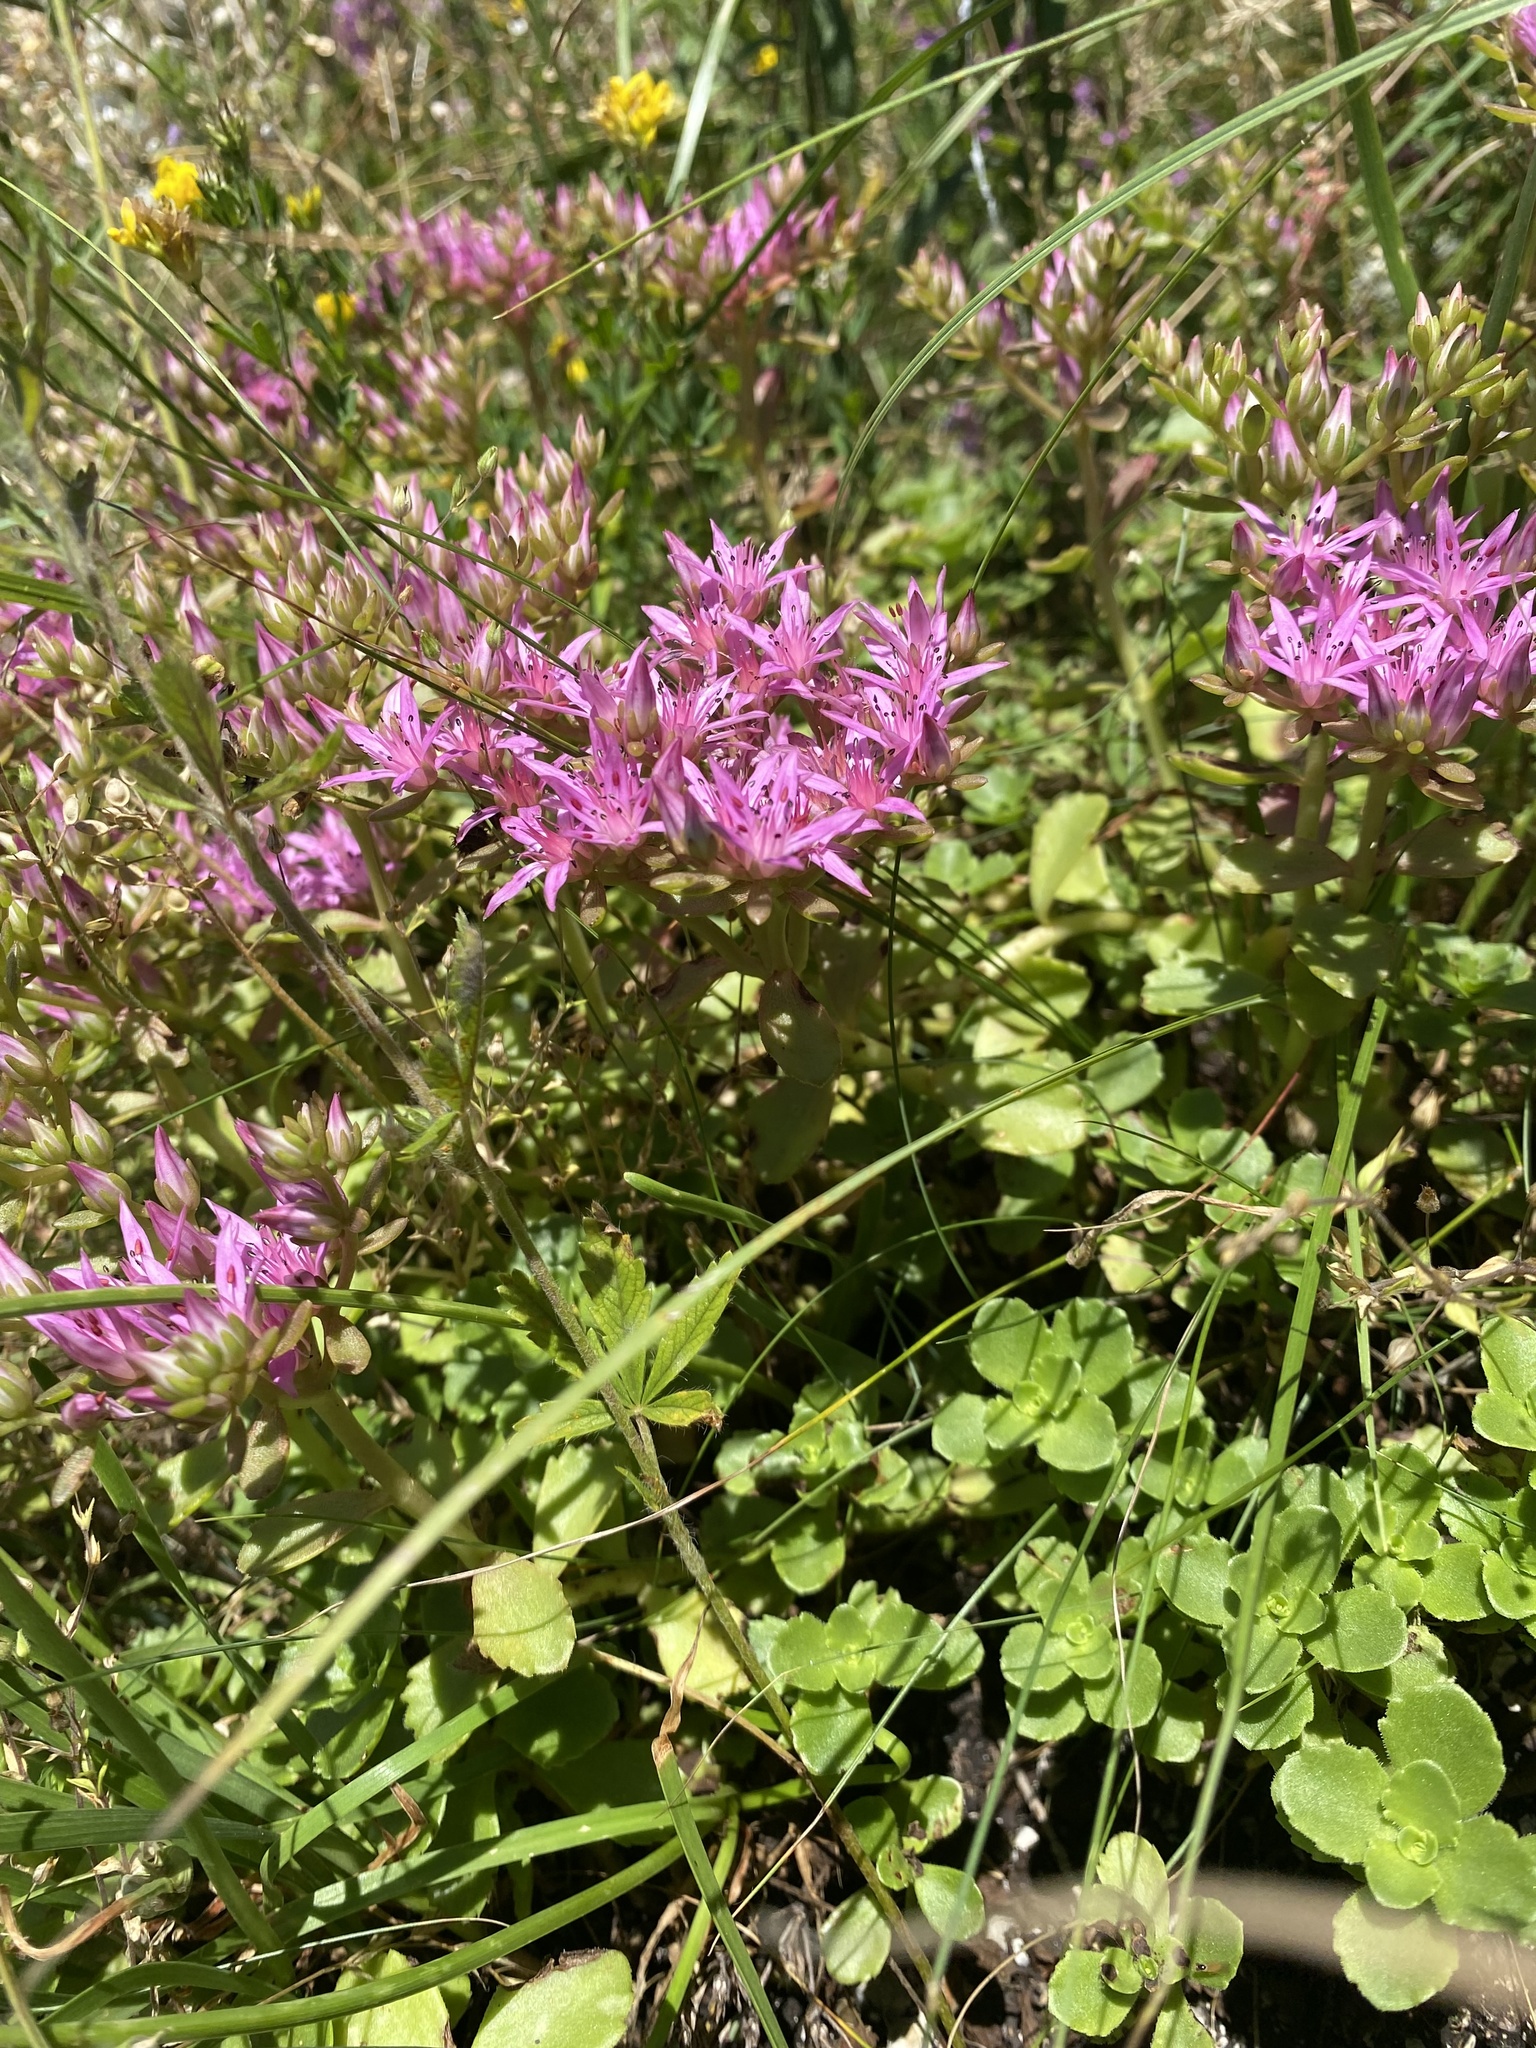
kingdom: Plantae
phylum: Tracheophyta
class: Magnoliopsida
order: Saxifragales
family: Crassulaceae
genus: Phedimus
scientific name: Phedimus spurius
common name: Caucasian stonecrop
